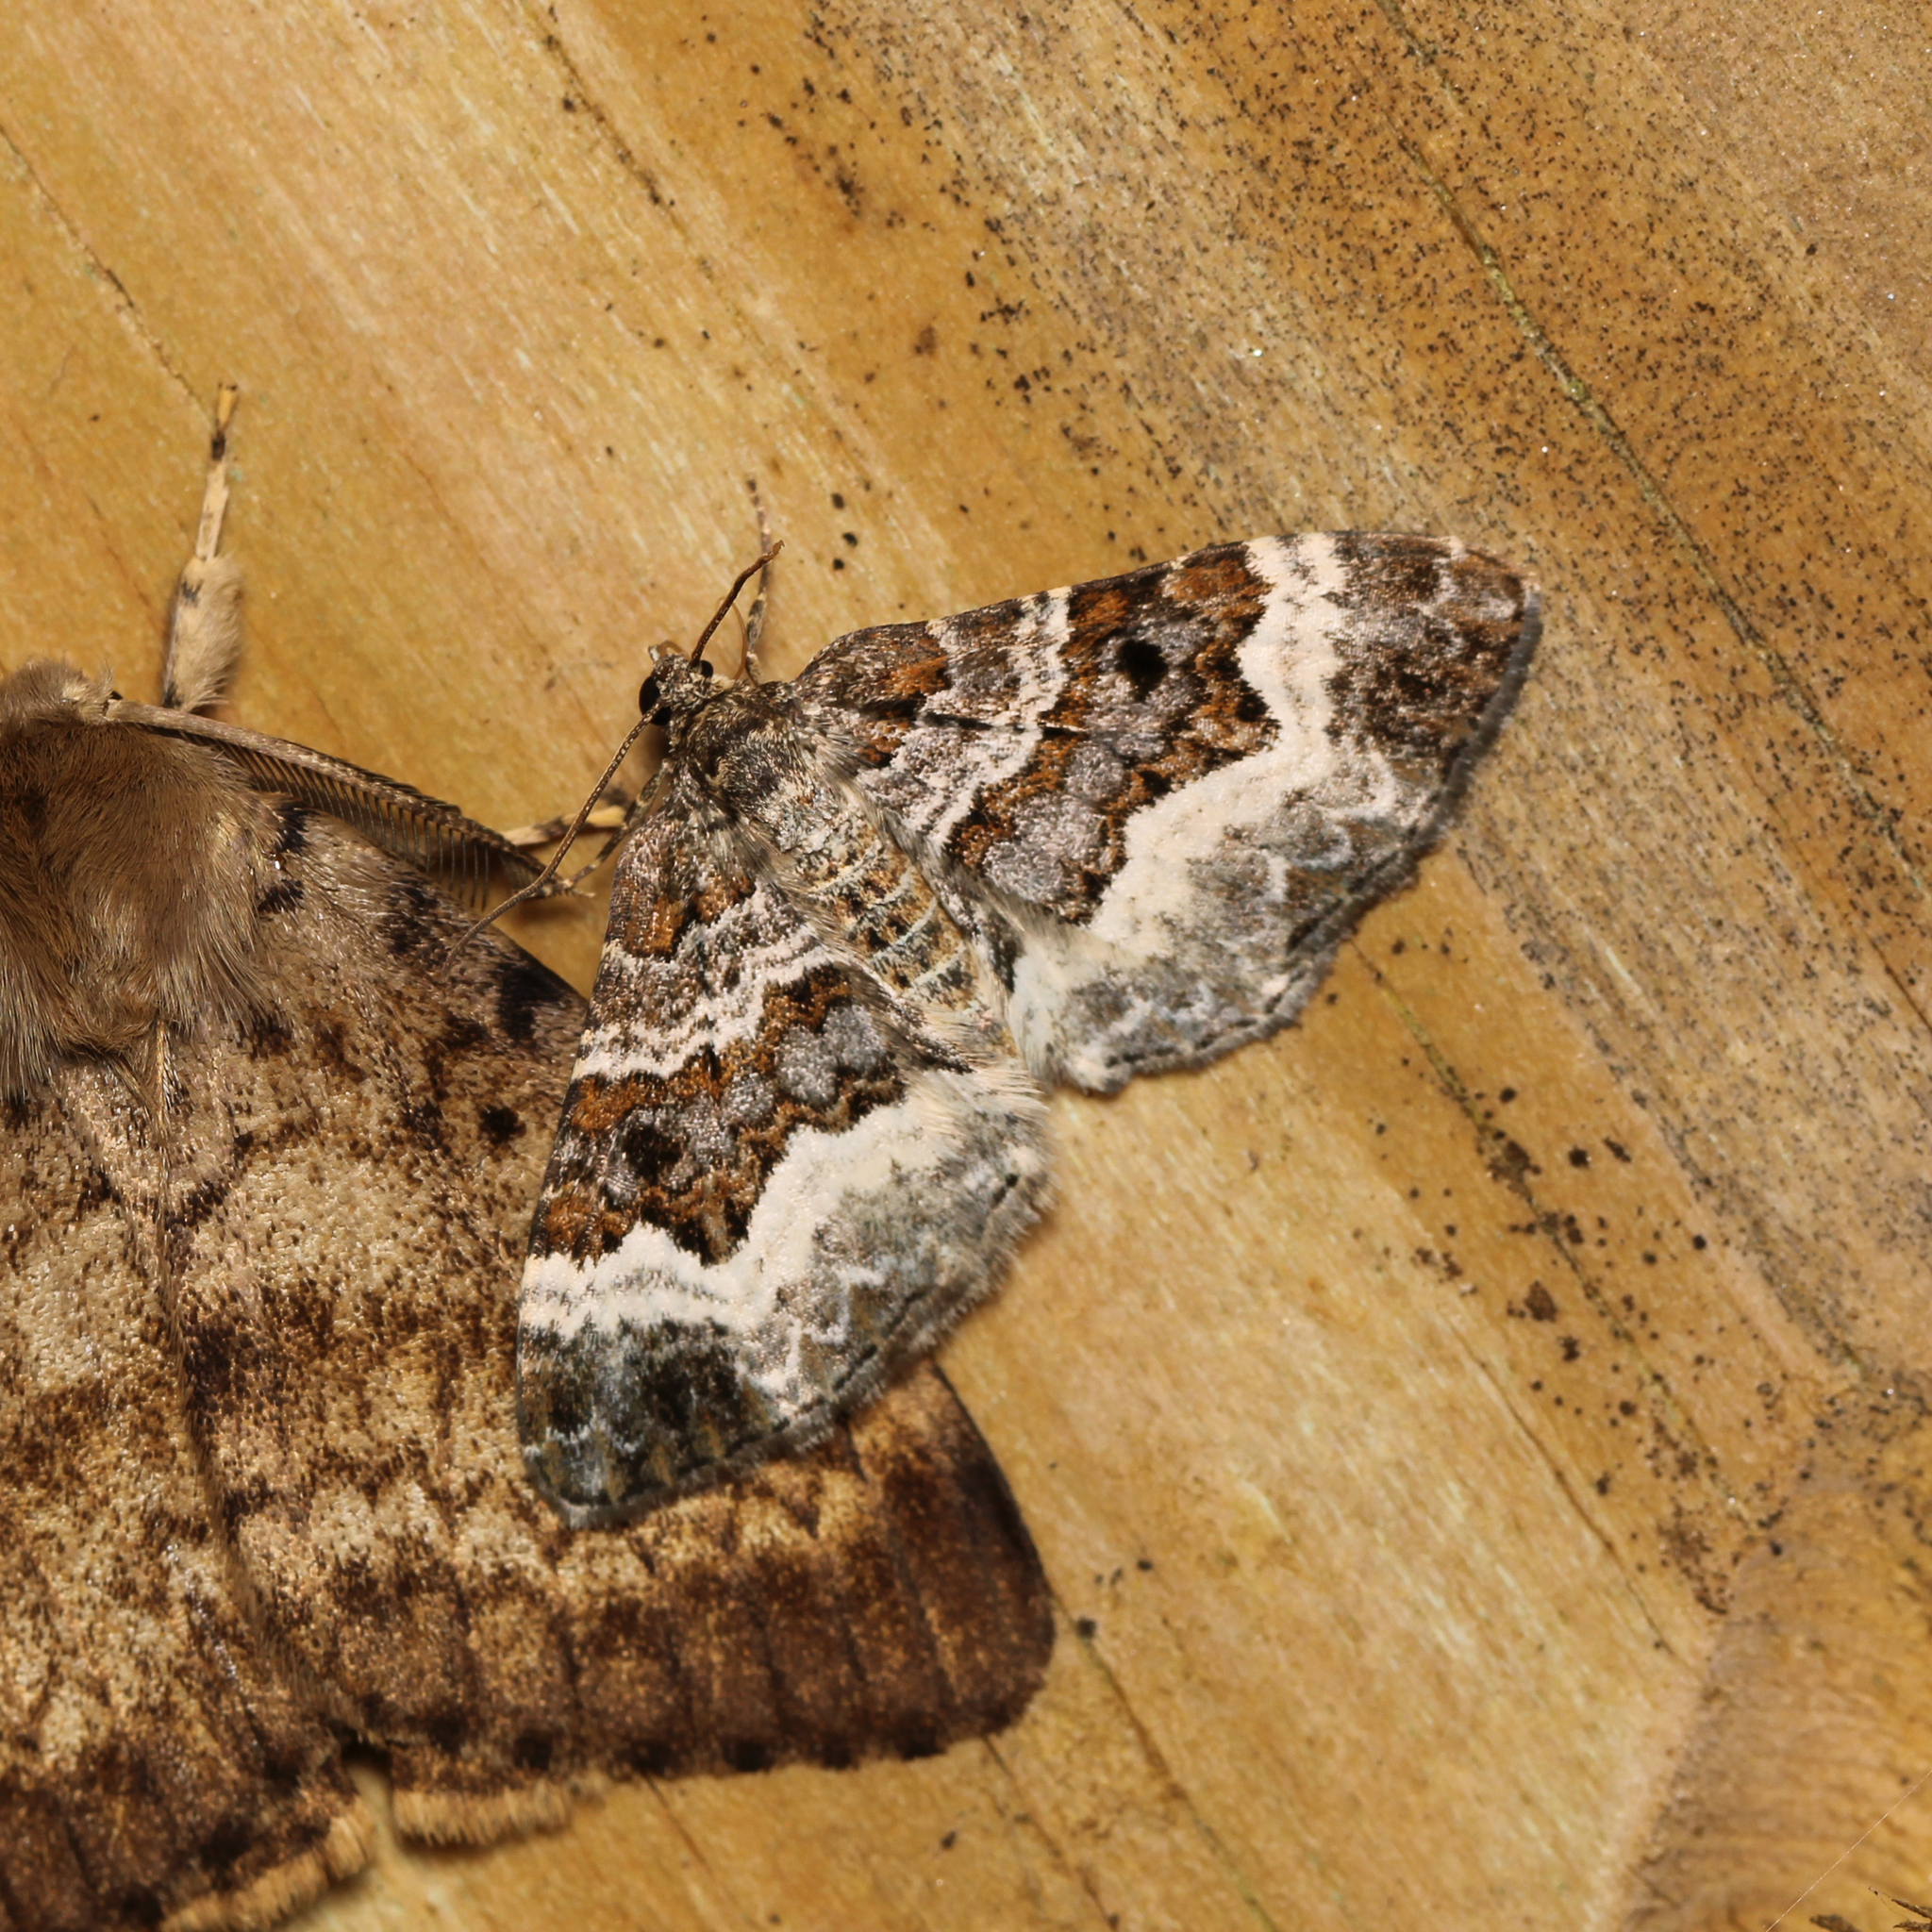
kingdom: Animalia
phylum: Arthropoda
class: Insecta
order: Lepidoptera
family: Geometridae
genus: Epirrhoe
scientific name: Epirrhoe alternata
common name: Common carpet
